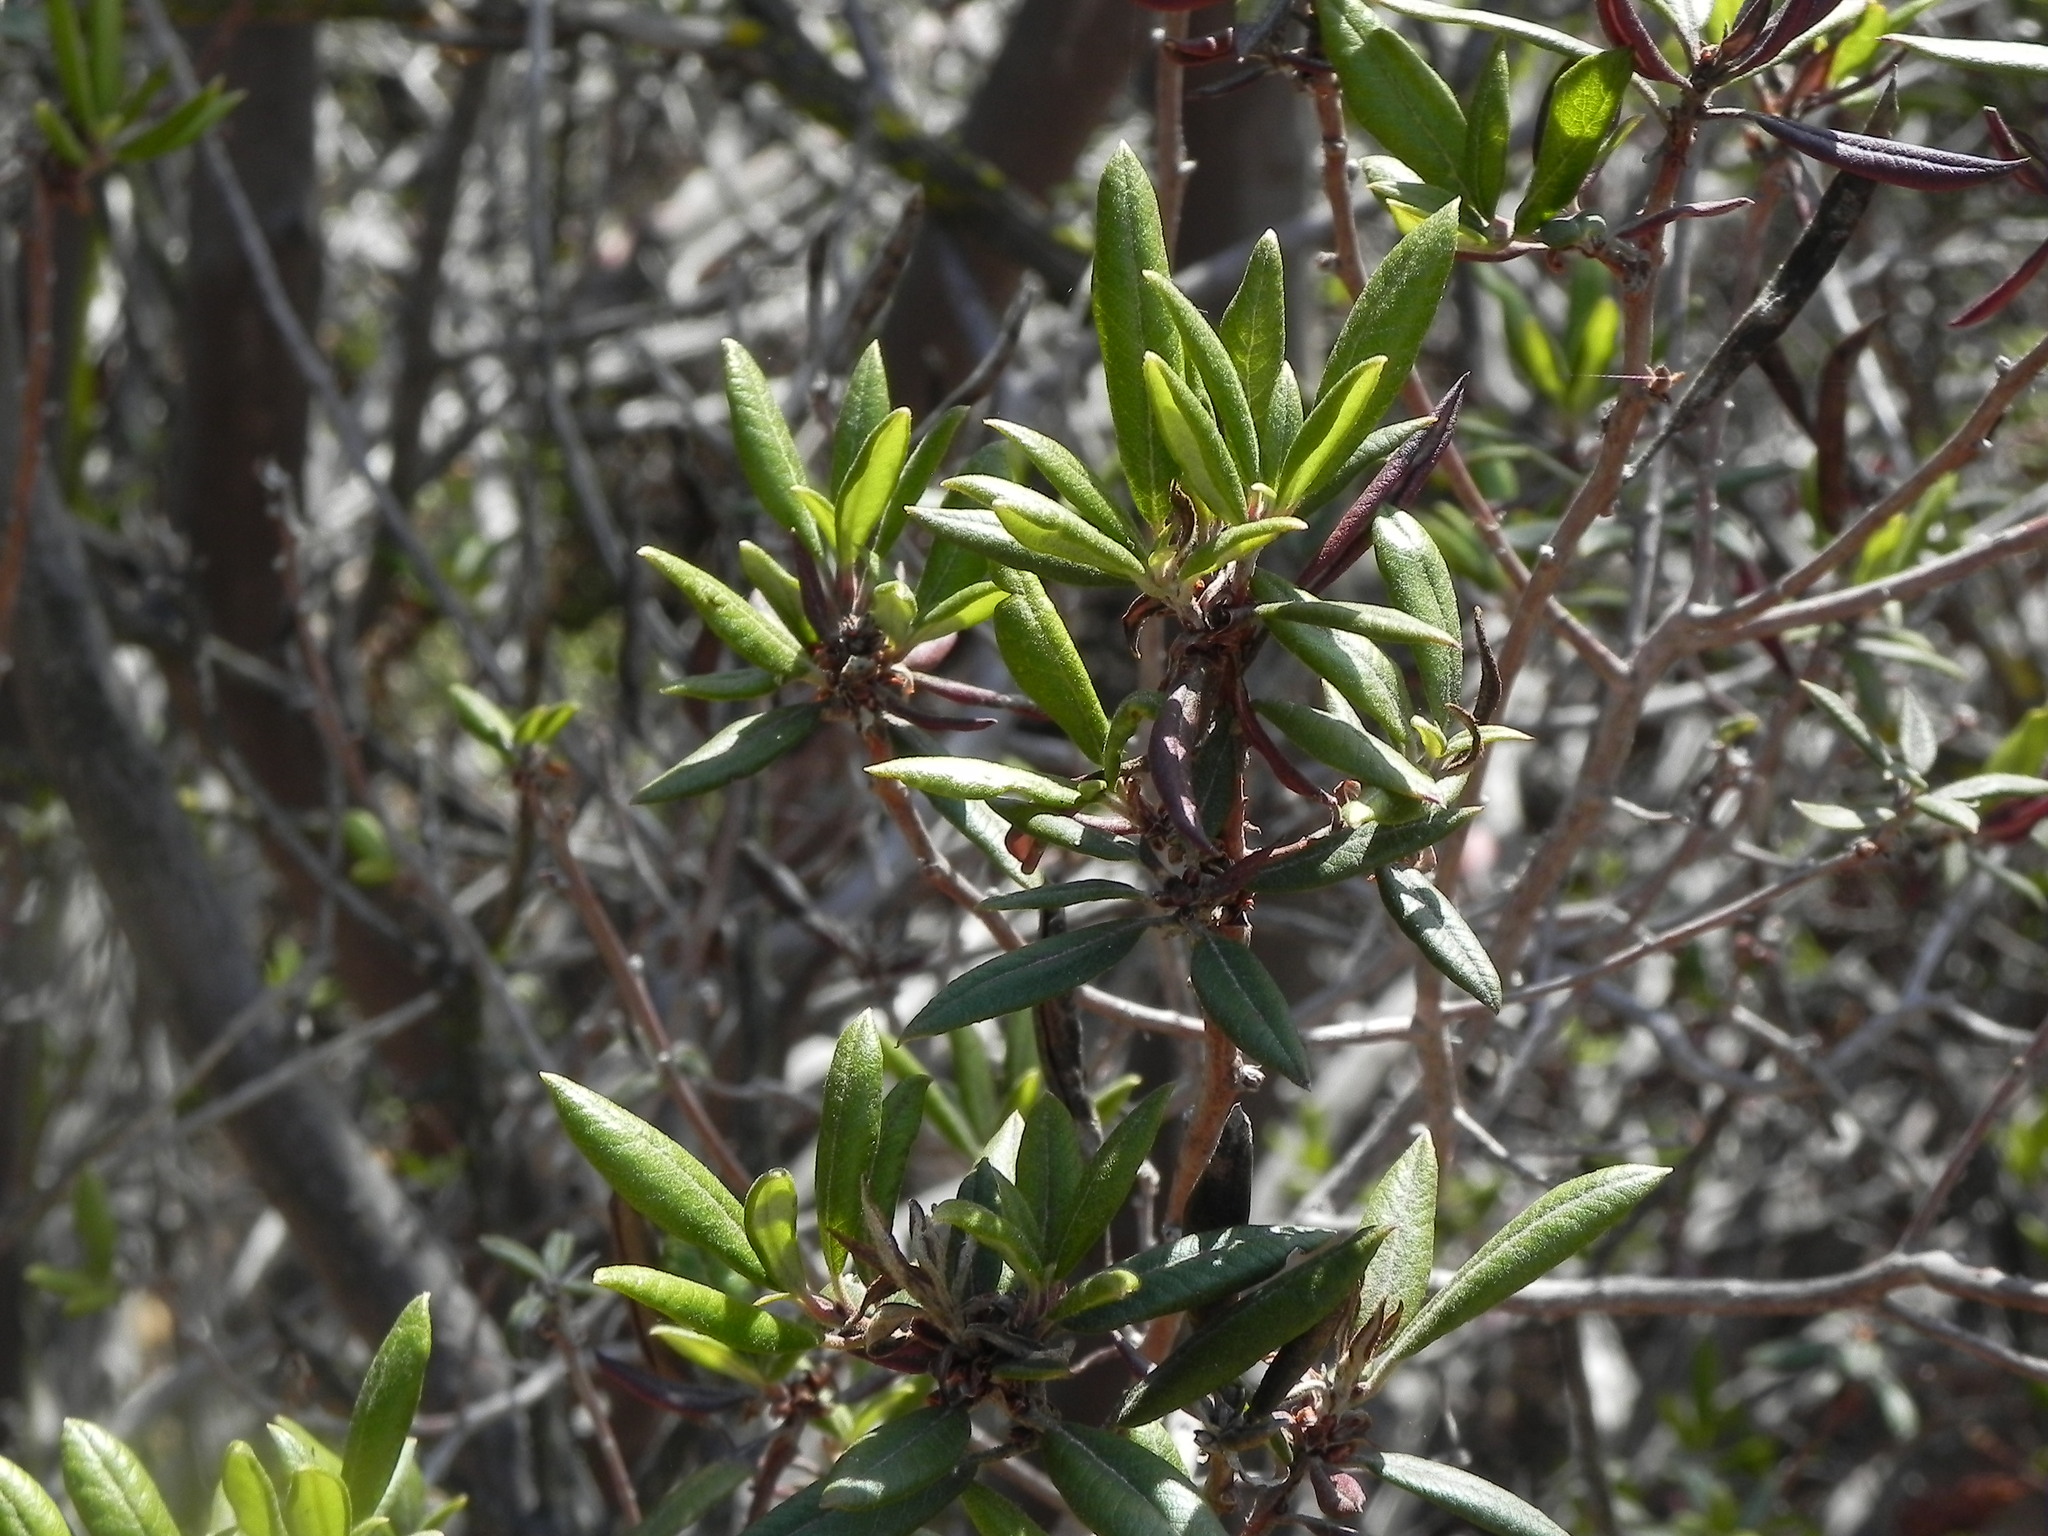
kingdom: Plantae
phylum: Tracheophyta
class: Magnoliopsida
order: Ericales
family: Ericaceae
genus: Arctostaphylos
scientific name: Arctostaphylos bicolor
